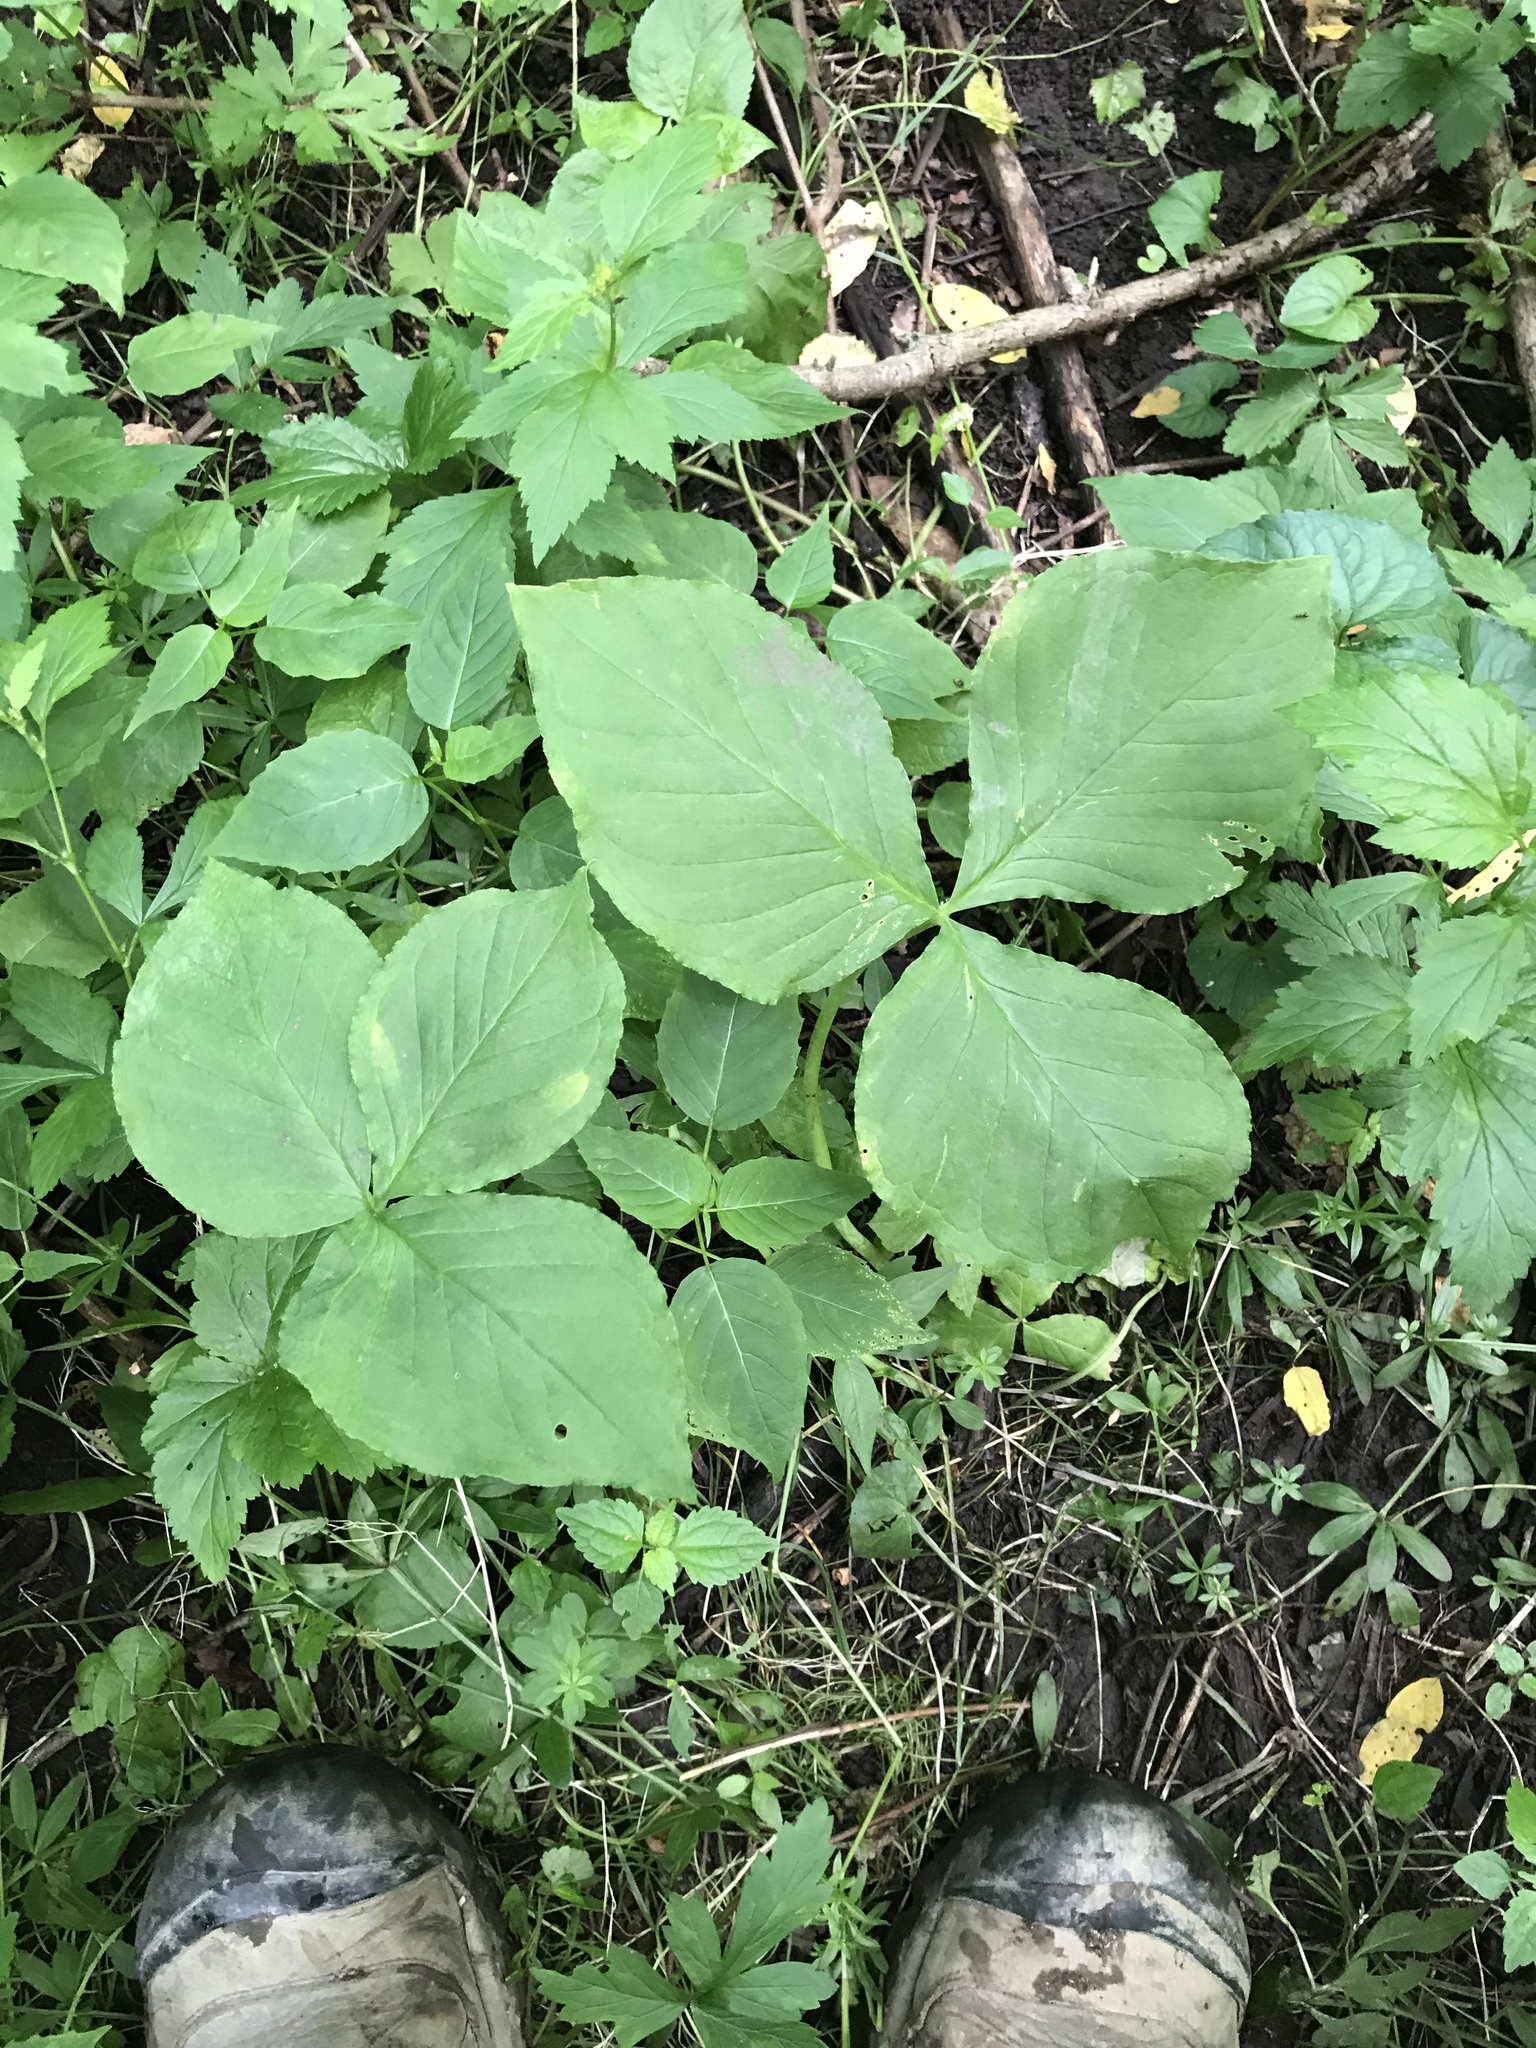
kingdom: Plantae
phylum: Tracheophyta
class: Liliopsida
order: Alismatales
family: Araceae
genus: Arisaema
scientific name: Arisaema triphyllum
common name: Jack-in-the-pulpit
